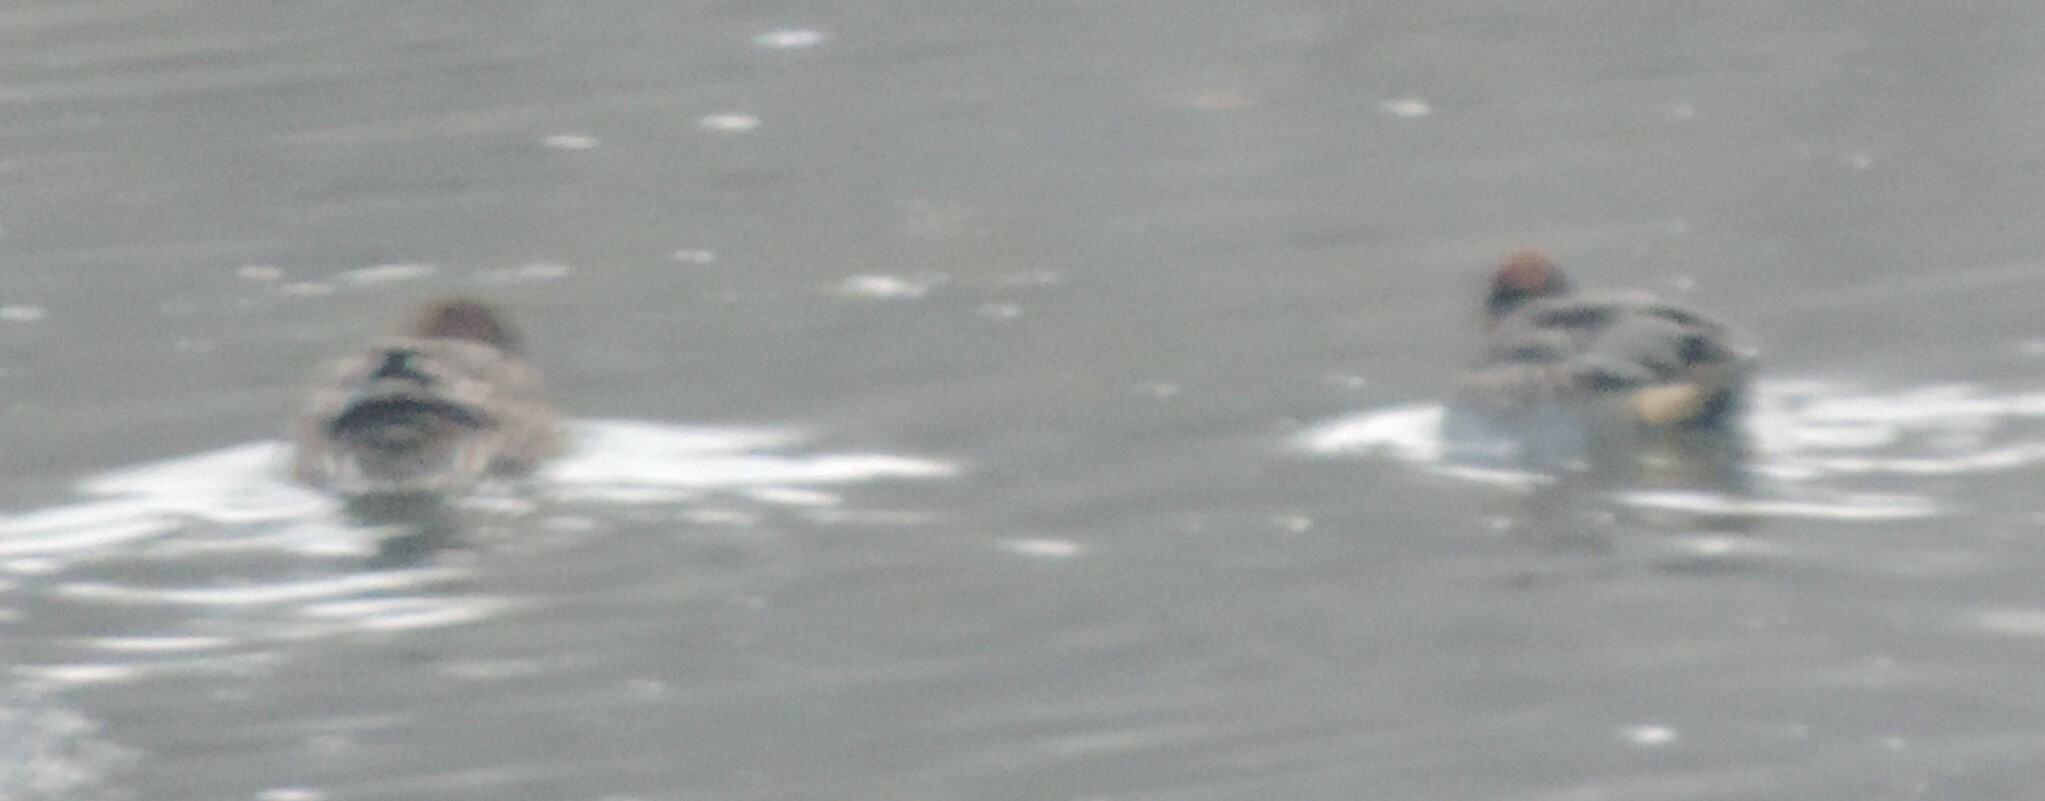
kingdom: Animalia
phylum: Chordata
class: Aves
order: Anseriformes
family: Anatidae
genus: Anas
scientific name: Anas crecca
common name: Eurasian teal
